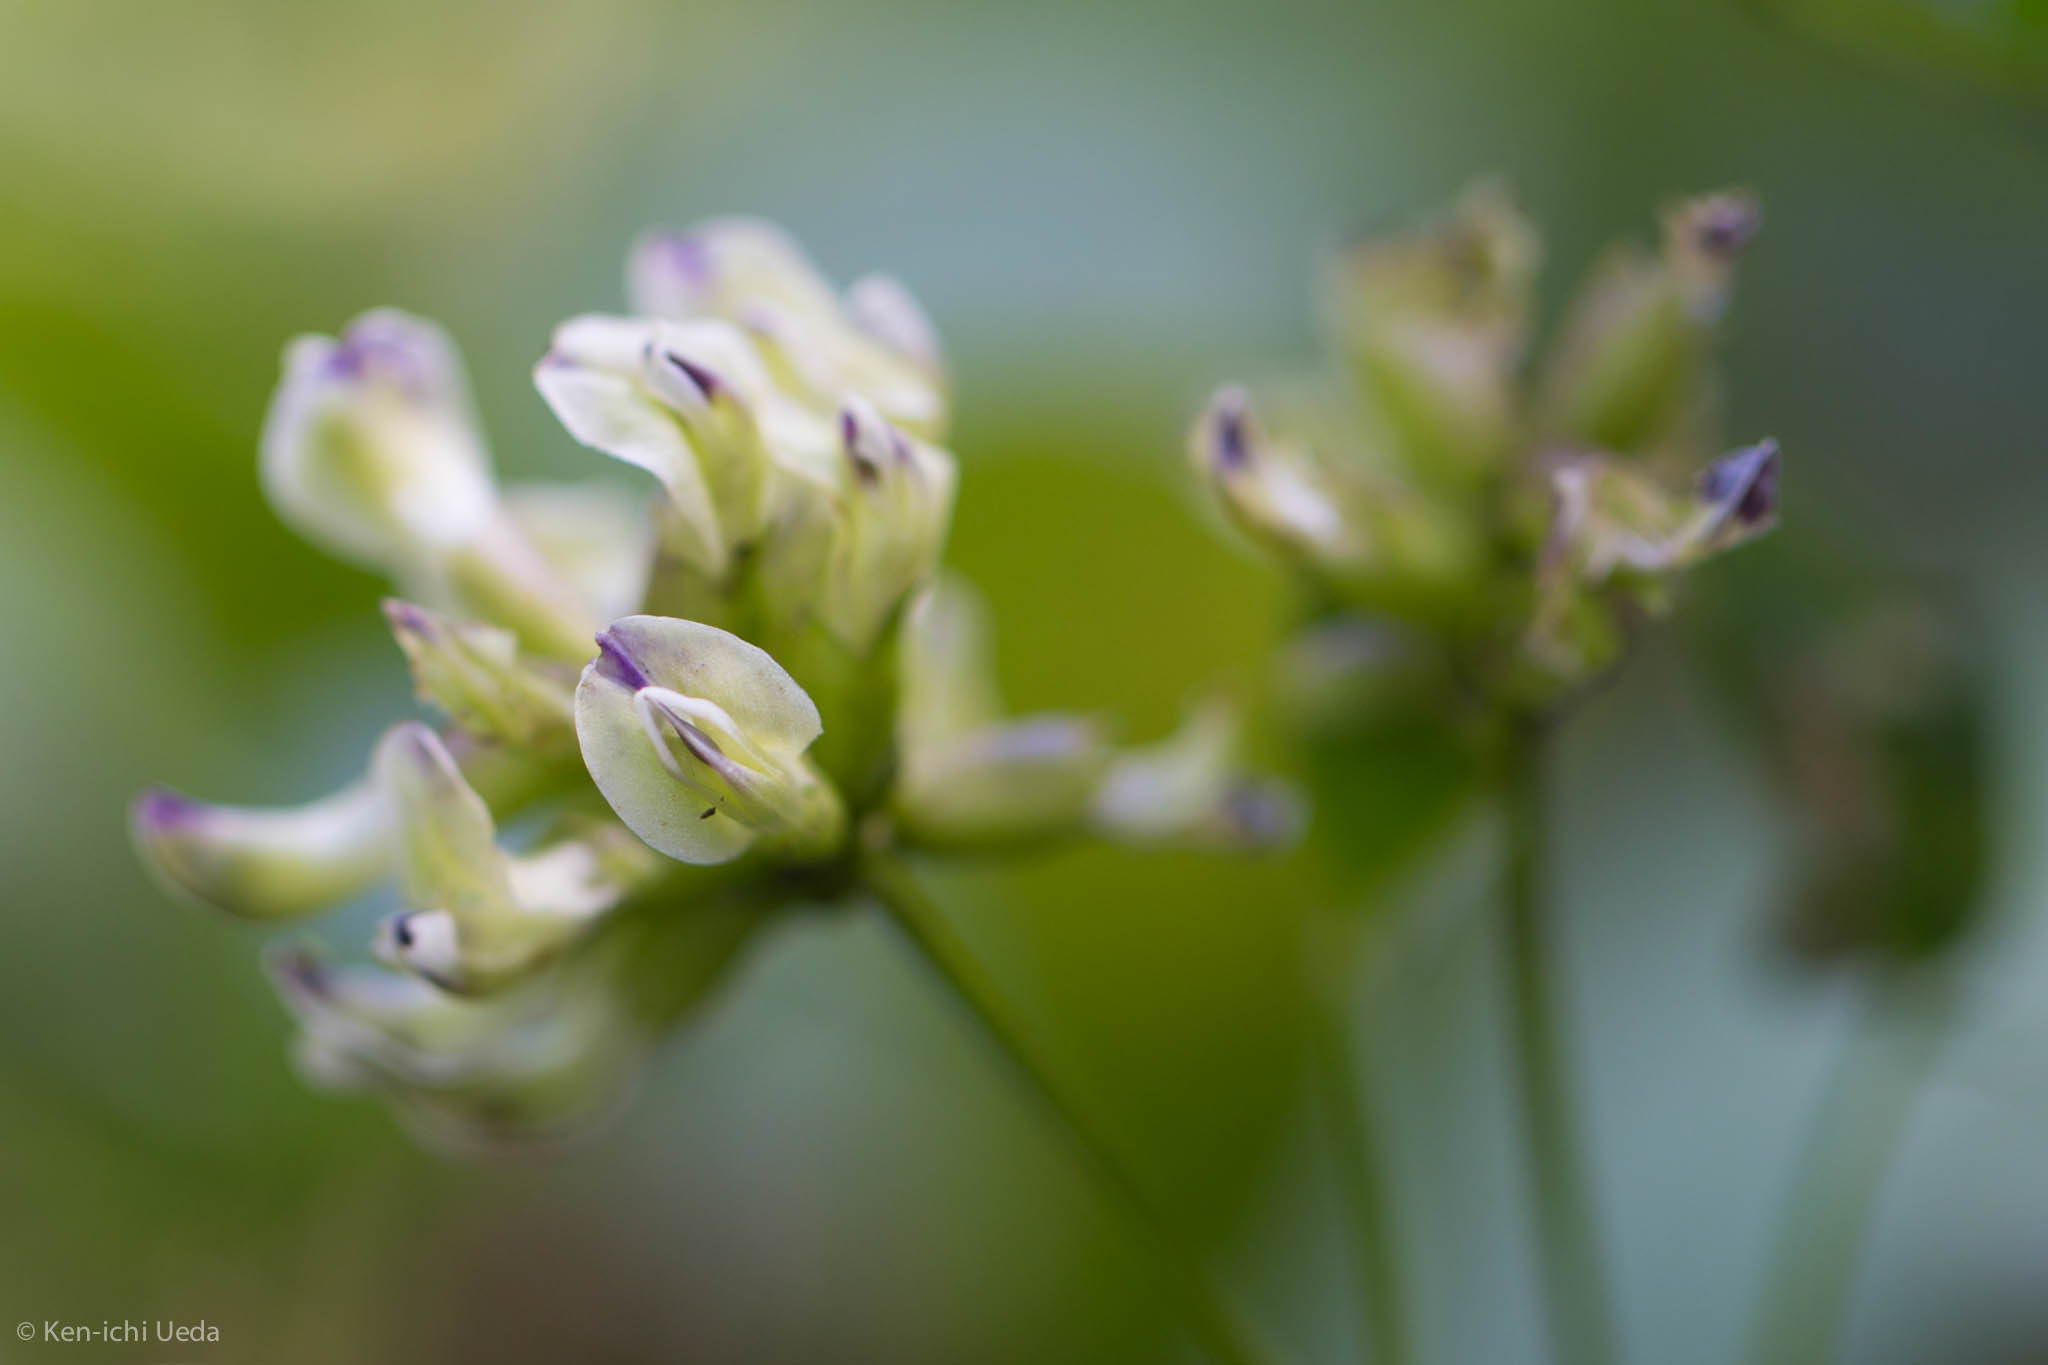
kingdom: Plantae
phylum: Tracheophyta
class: Magnoliopsida
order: Fabales
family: Fabaceae
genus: Rupertia
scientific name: Rupertia physodes
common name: California-tea
